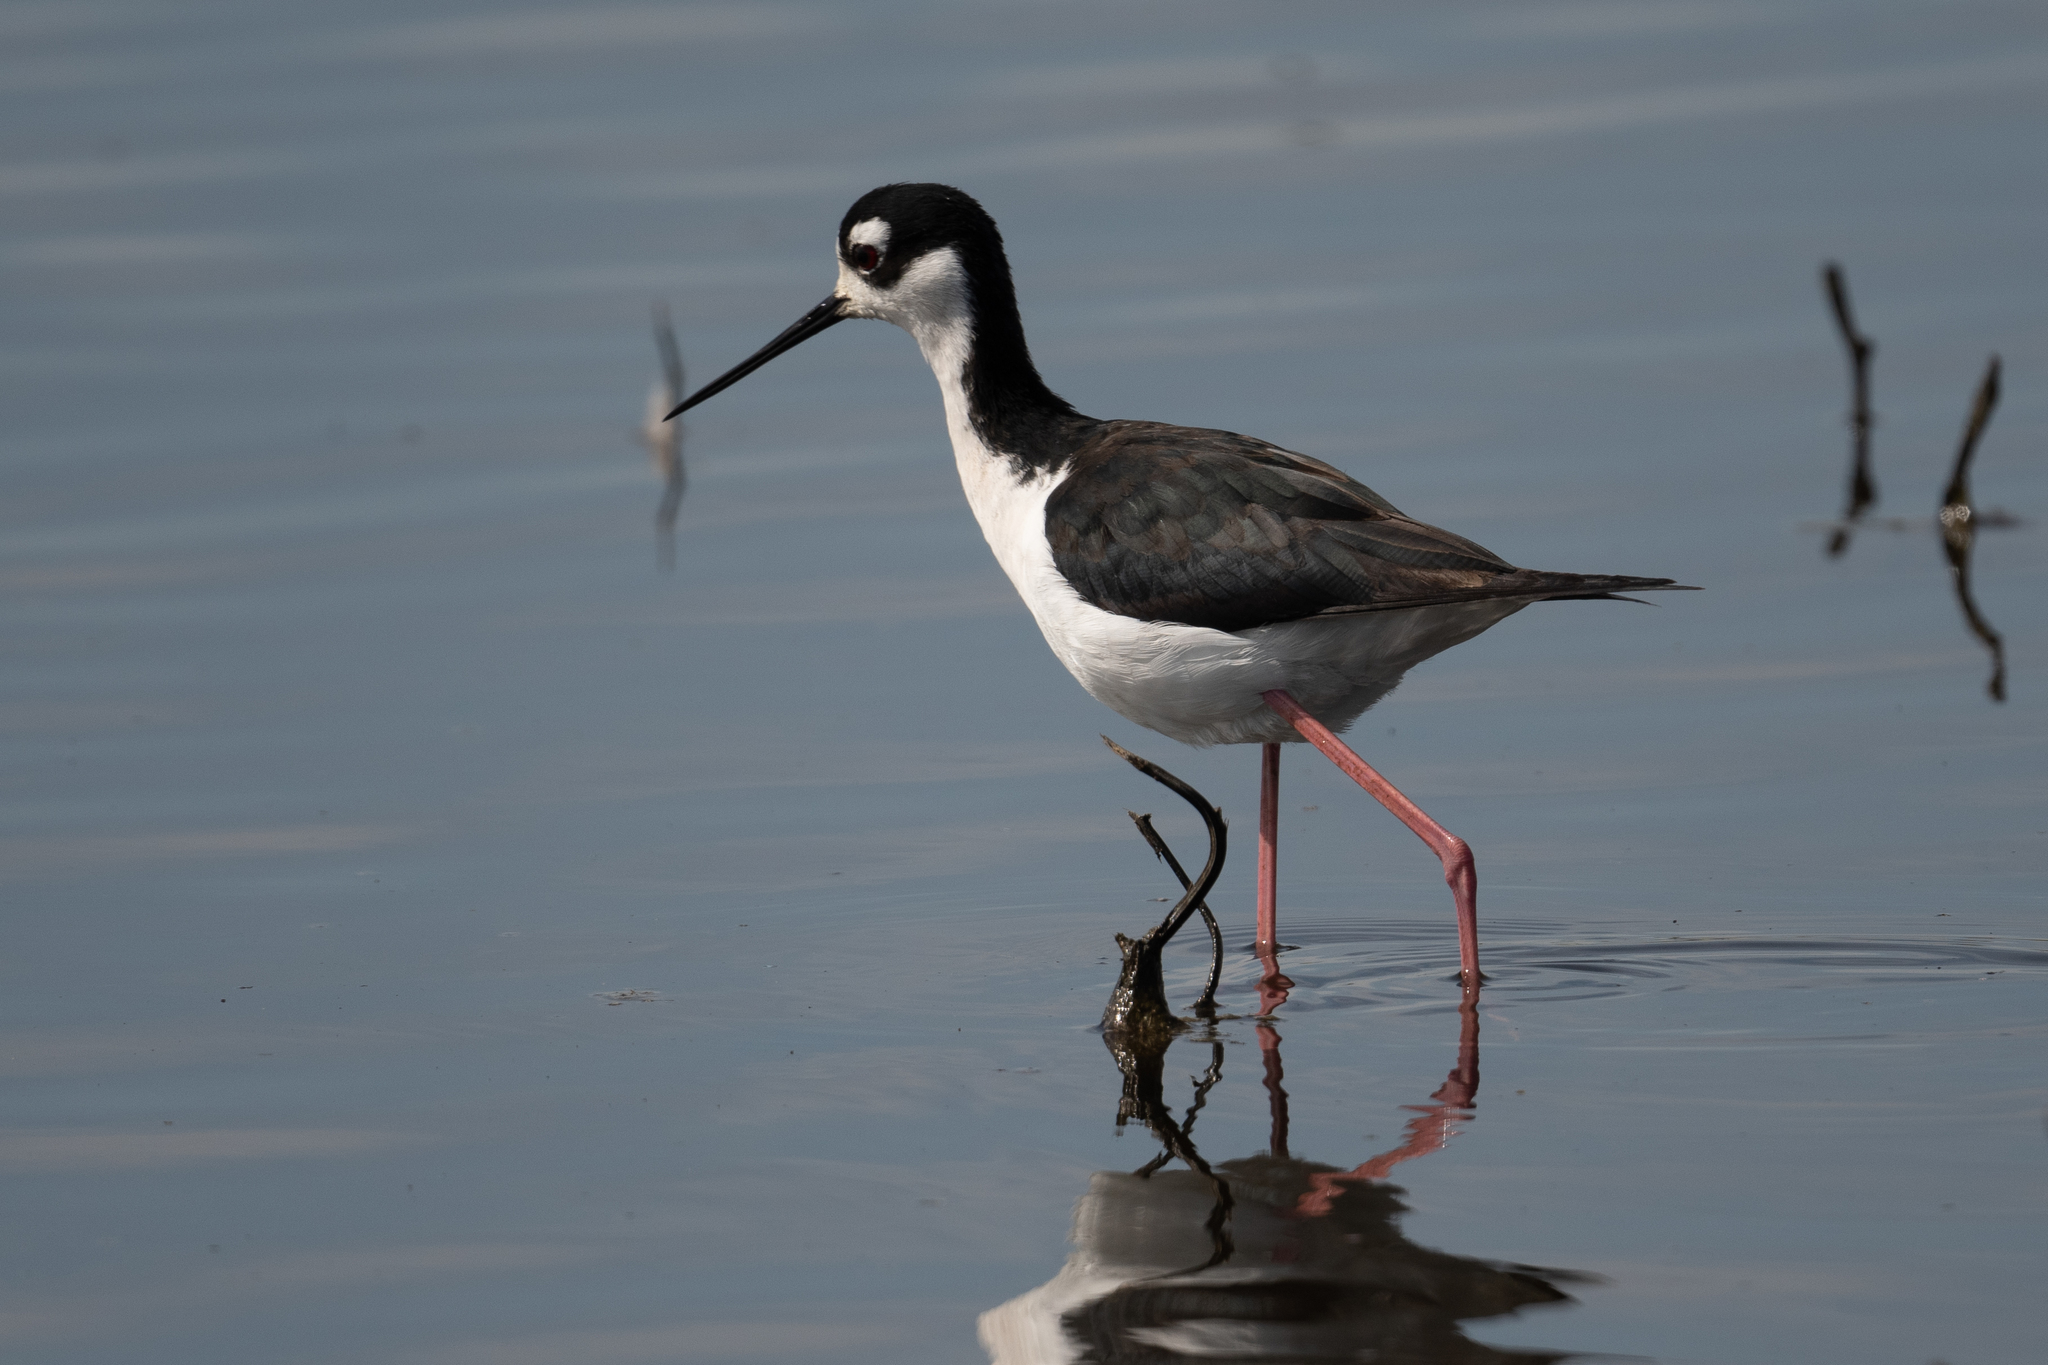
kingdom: Animalia
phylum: Chordata
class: Aves
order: Charadriiformes
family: Recurvirostridae
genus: Himantopus
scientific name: Himantopus mexicanus
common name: Black-necked stilt
